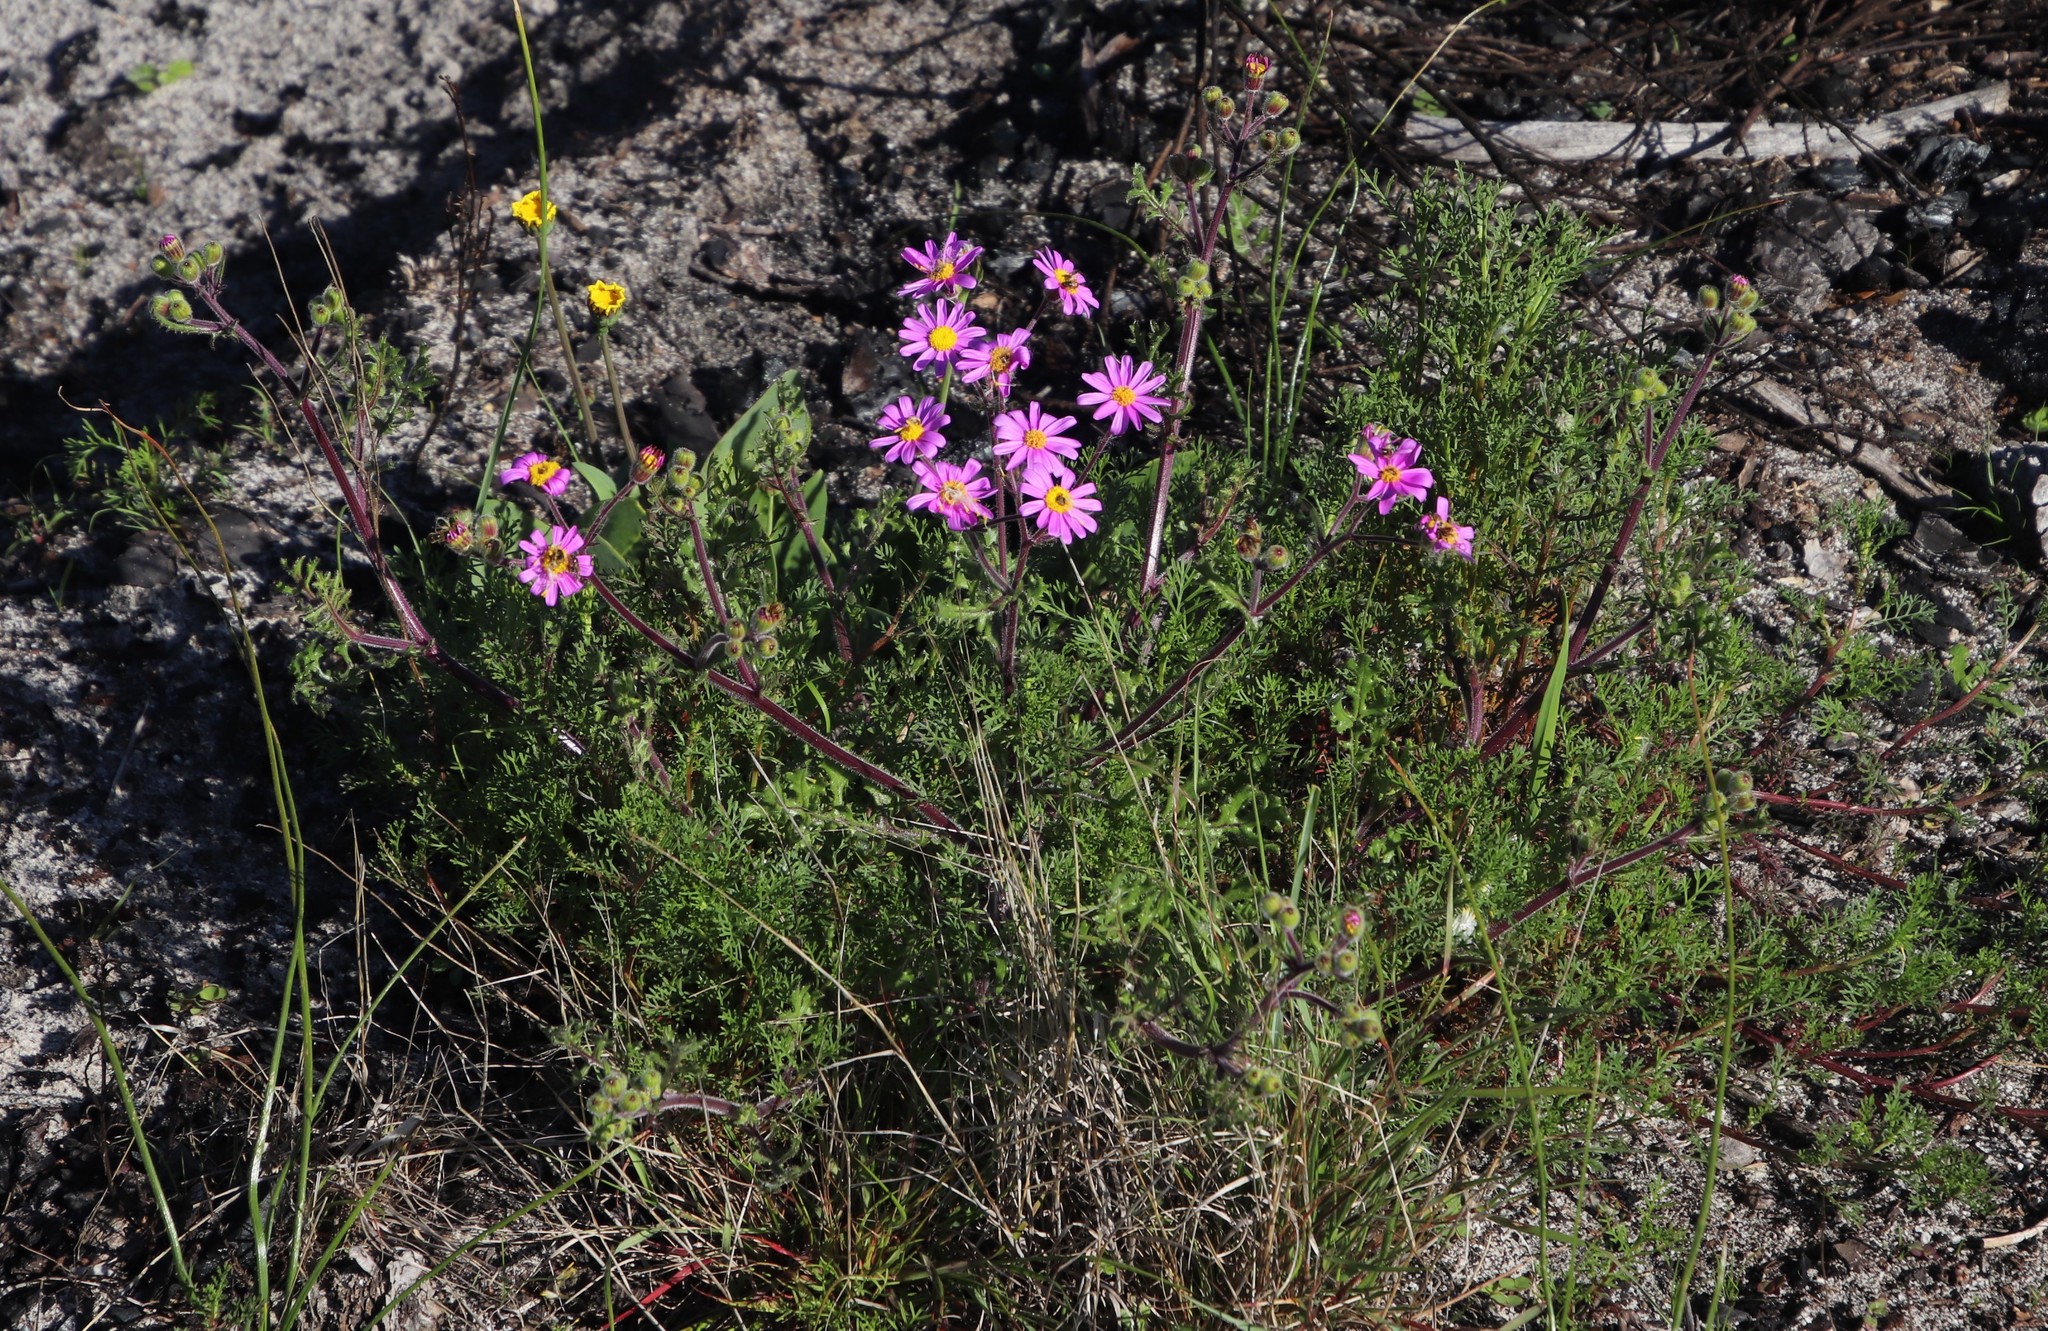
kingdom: Plantae
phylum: Tracheophyta
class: Magnoliopsida
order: Asterales
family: Asteraceae
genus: Senecio
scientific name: Senecio arenarius
